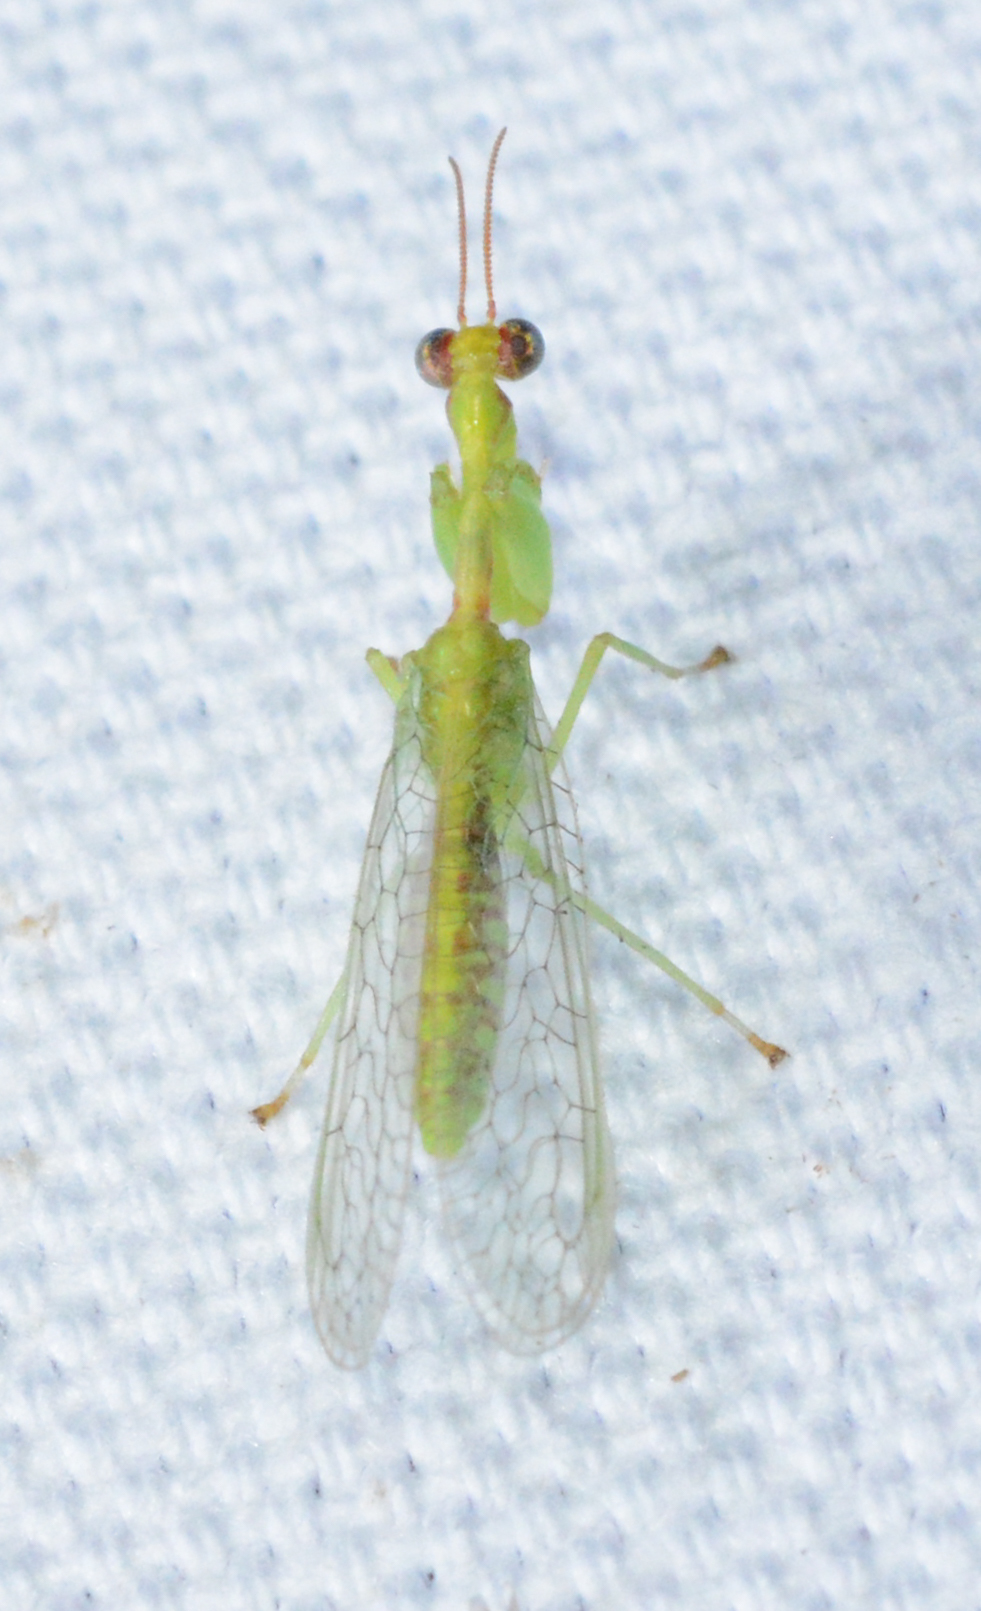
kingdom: Animalia
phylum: Arthropoda
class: Insecta
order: Neuroptera
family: Mantispidae
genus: Zeugomantispa
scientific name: Zeugomantispa minuta
